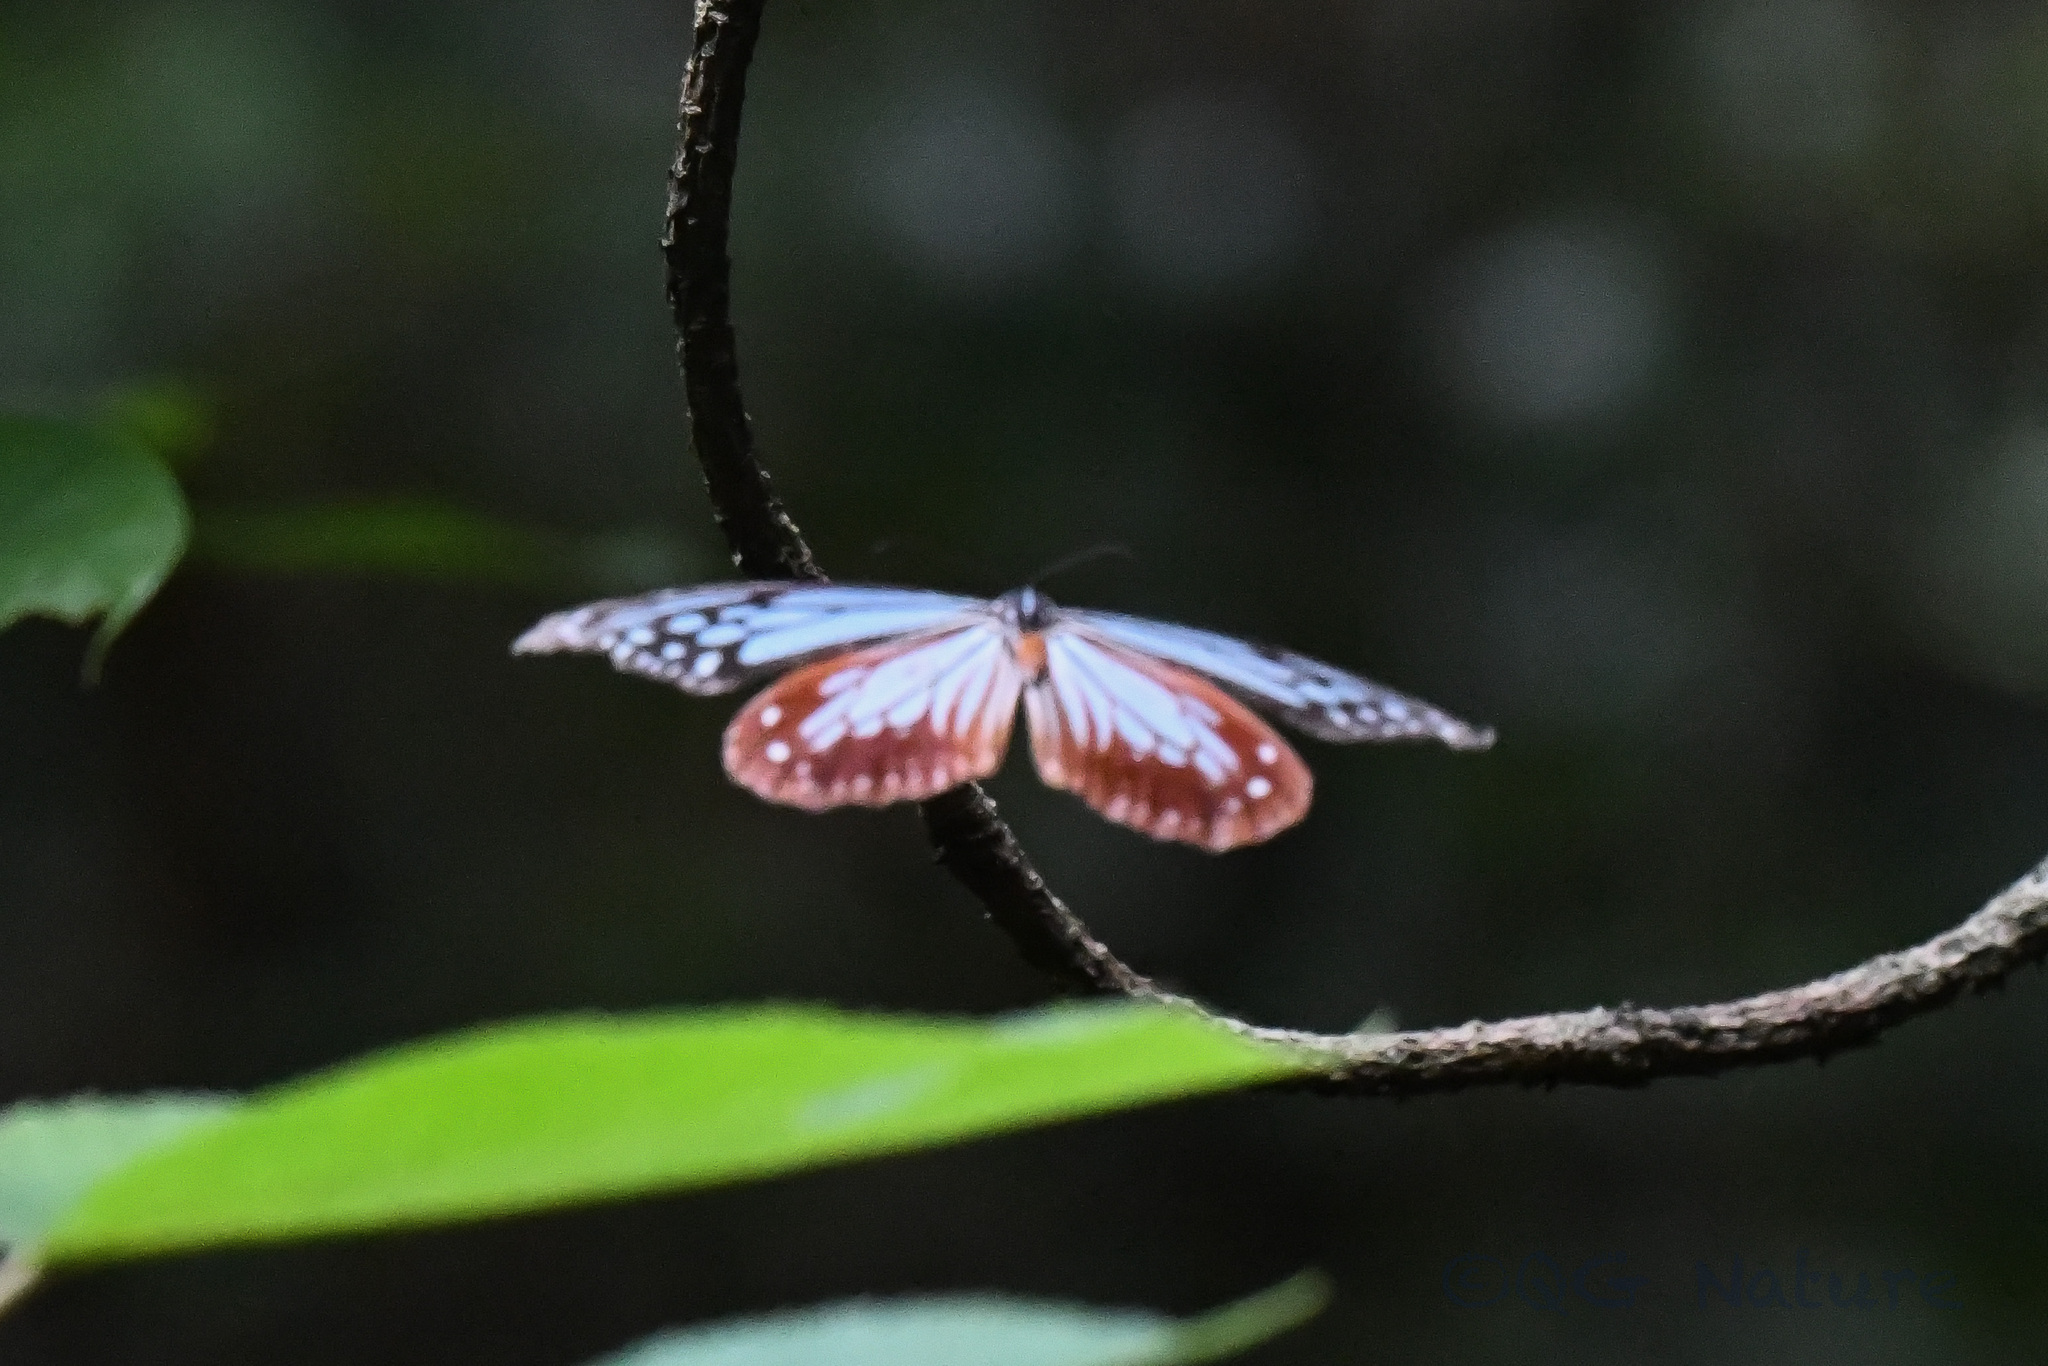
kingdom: Animalia
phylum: Arthropoda
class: Insecta
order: Lepidoptera
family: Nymphalidae
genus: Parantica
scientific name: Parantica sita
